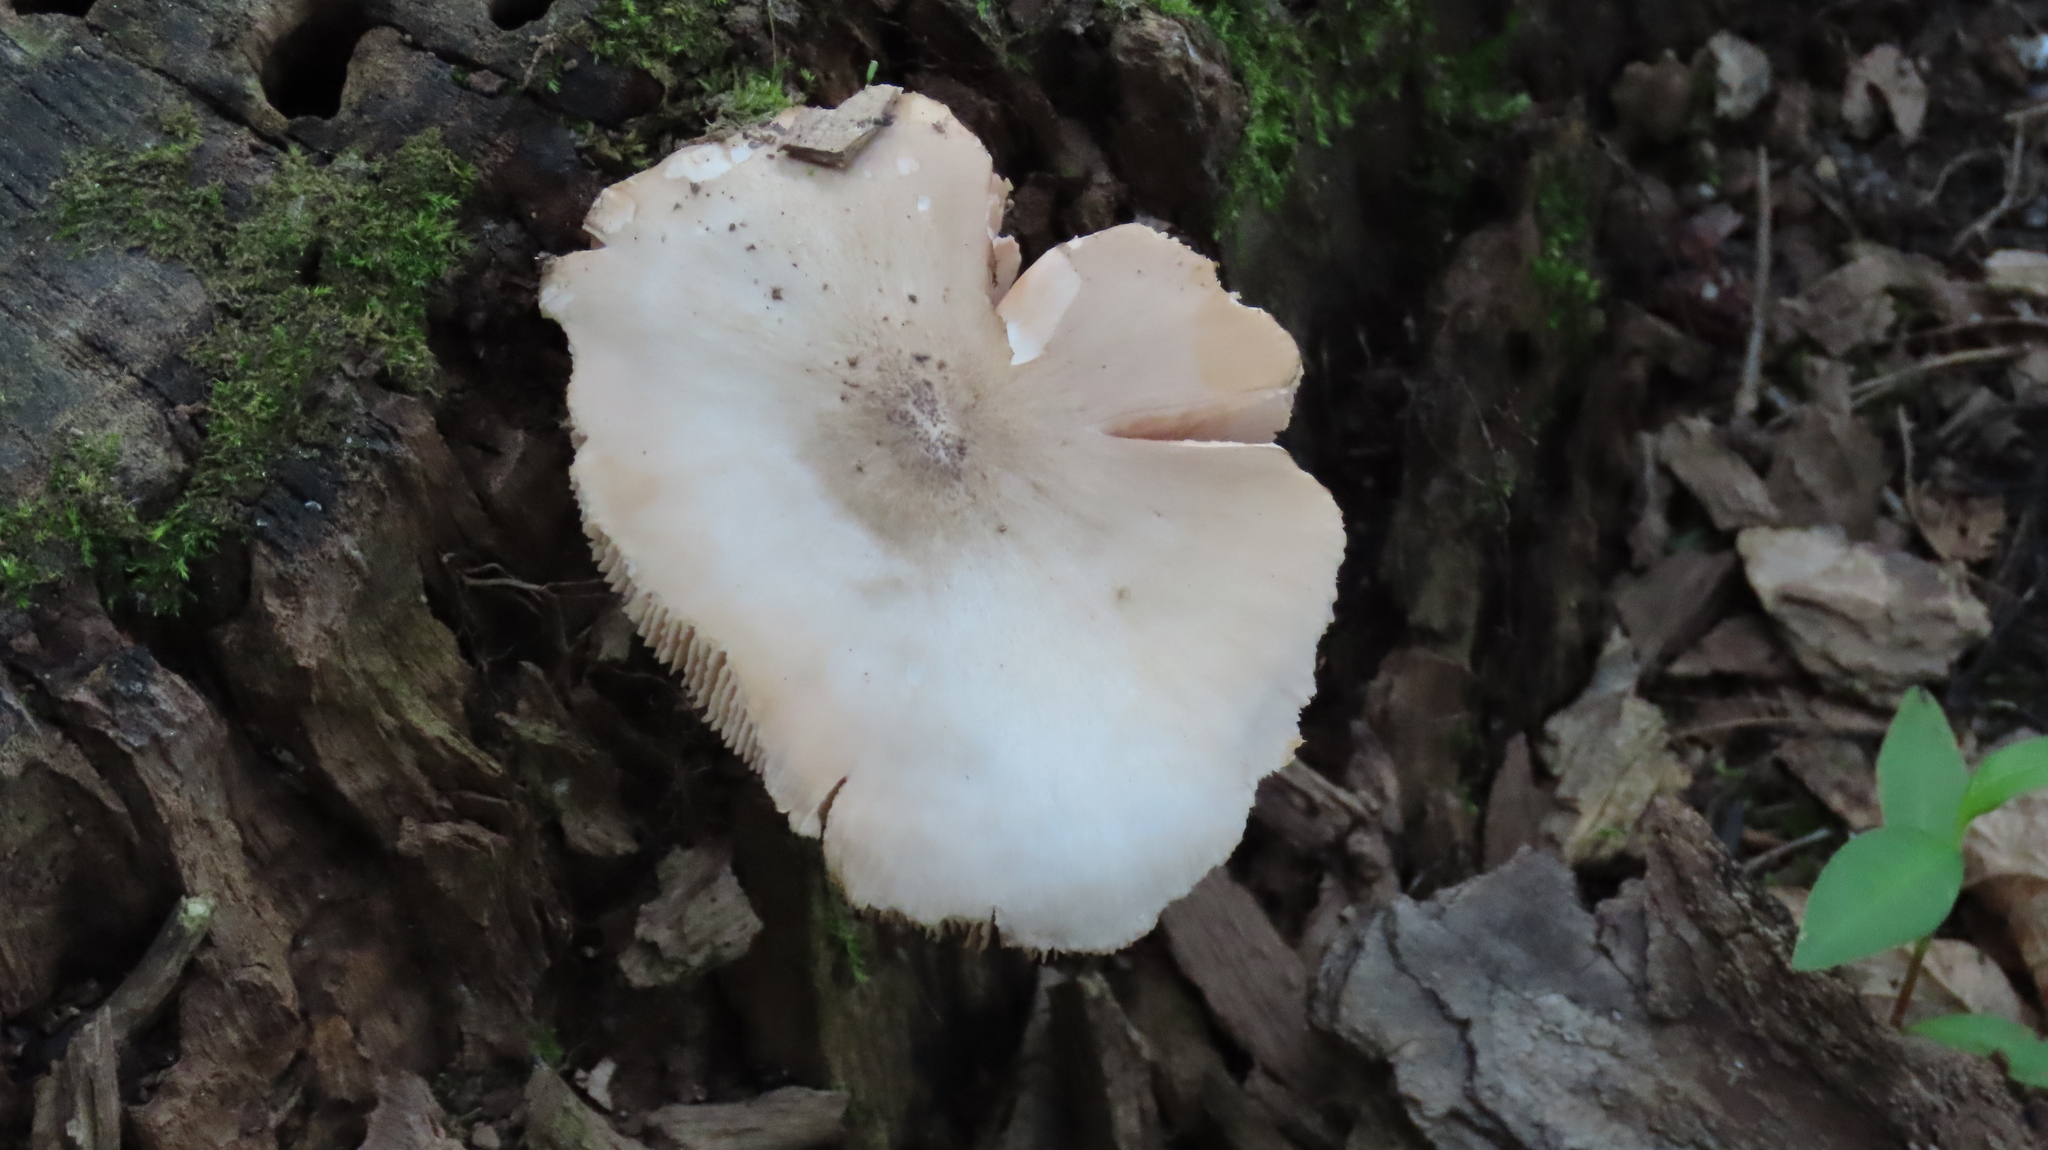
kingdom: Fungi
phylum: Basidiomycota
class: Agaricomycetes
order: Agaricales
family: Pluteaceae
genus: Pluteus
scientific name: Pluteus petasatus
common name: Scaly shield
